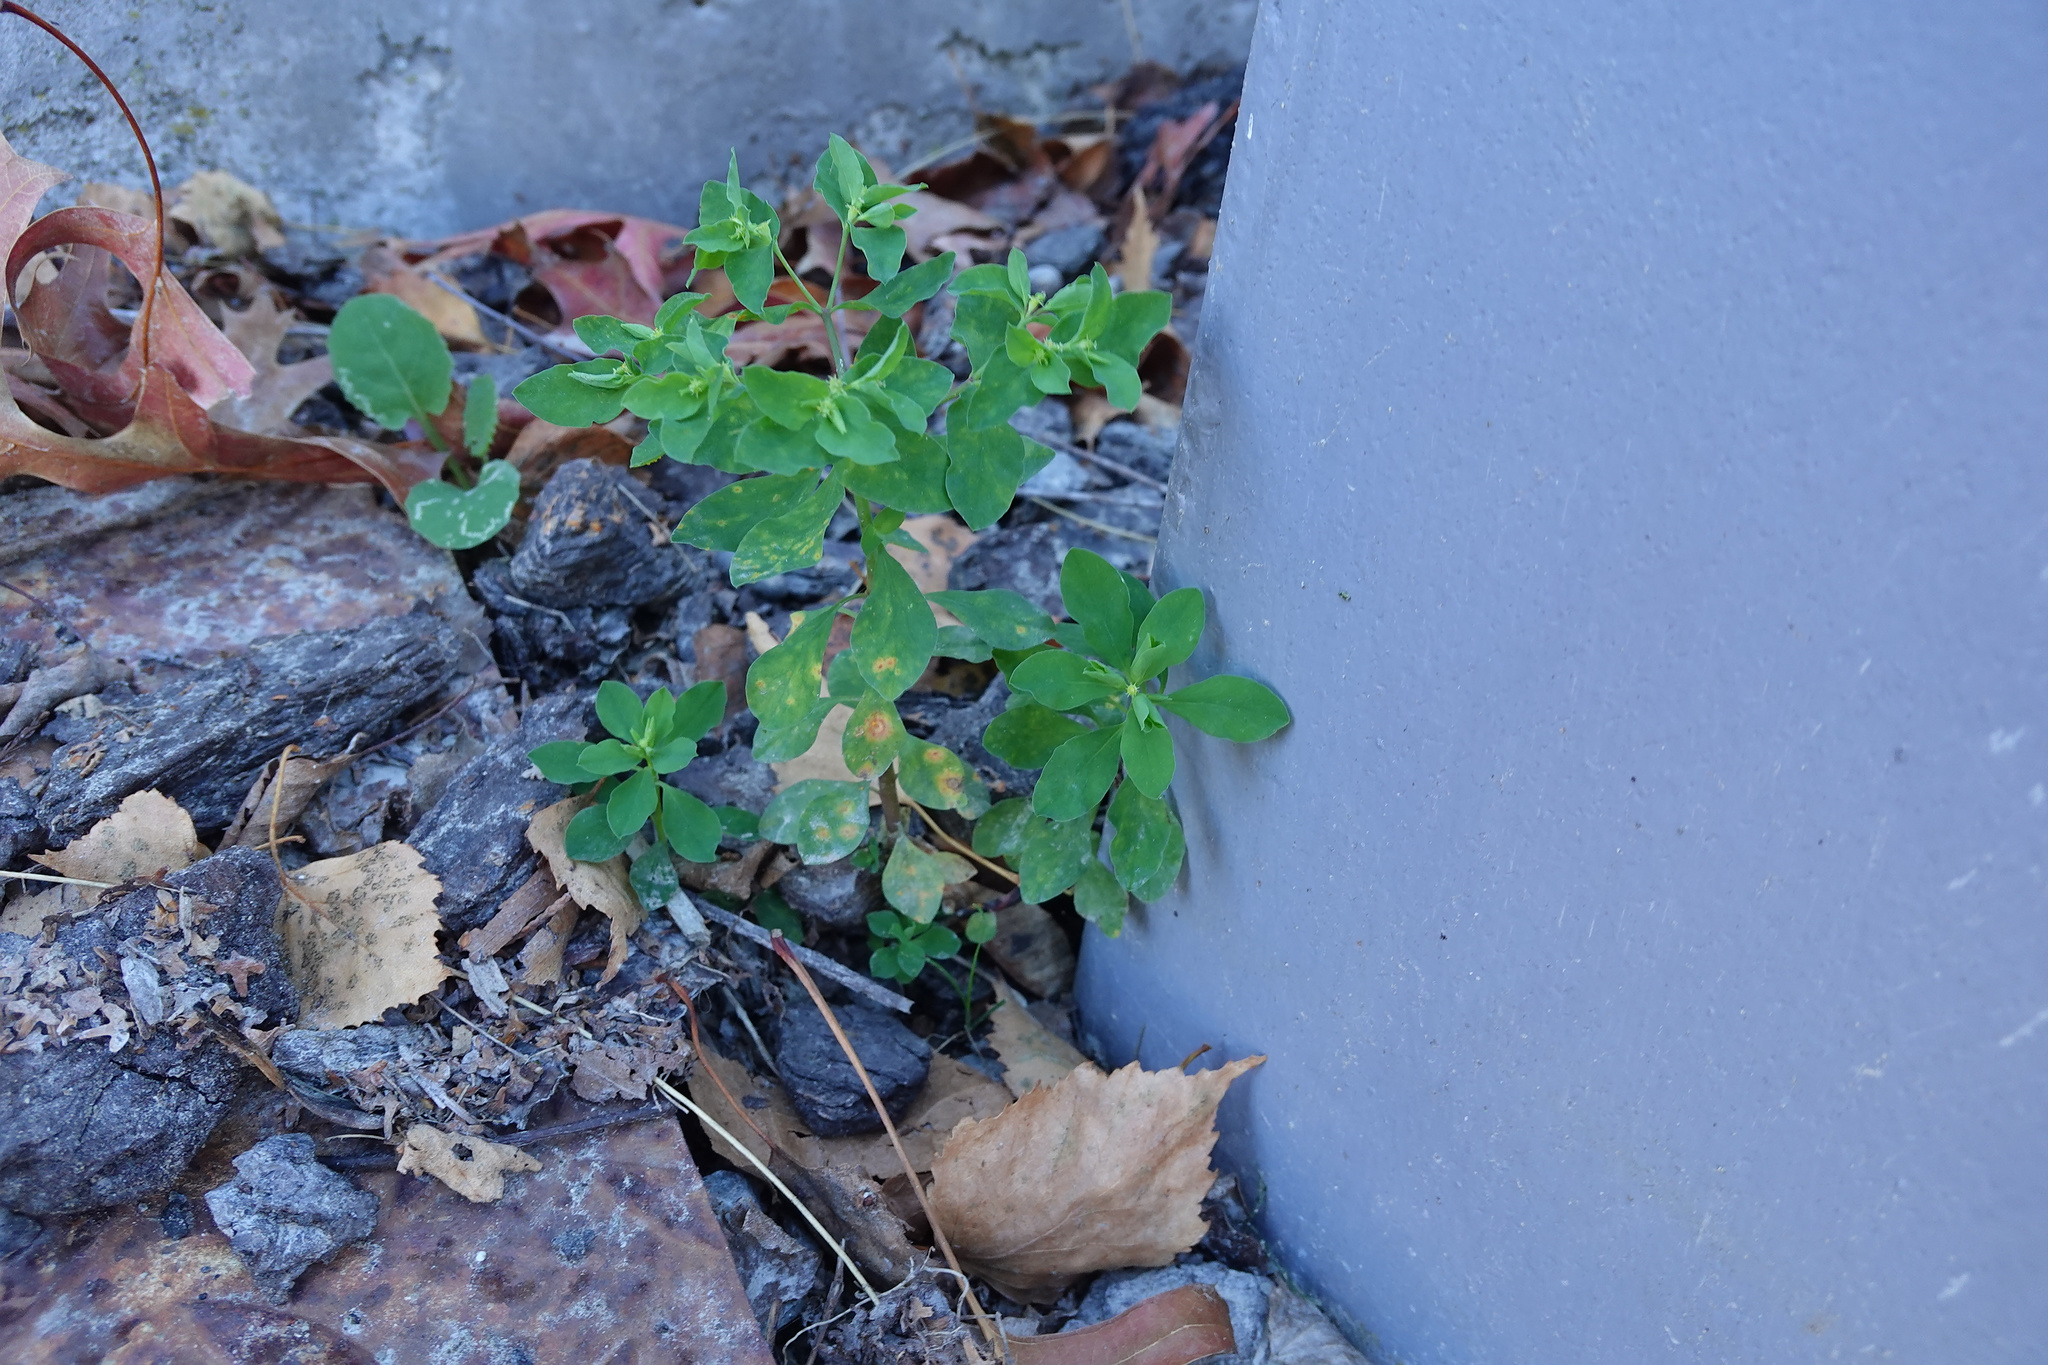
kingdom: Plantae
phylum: Tracheophyta
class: Magnoliopsida
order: Malpighiales
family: Euphorbiaceae
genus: Euphorbia
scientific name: Euphorbia peplus
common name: Petty spurge
